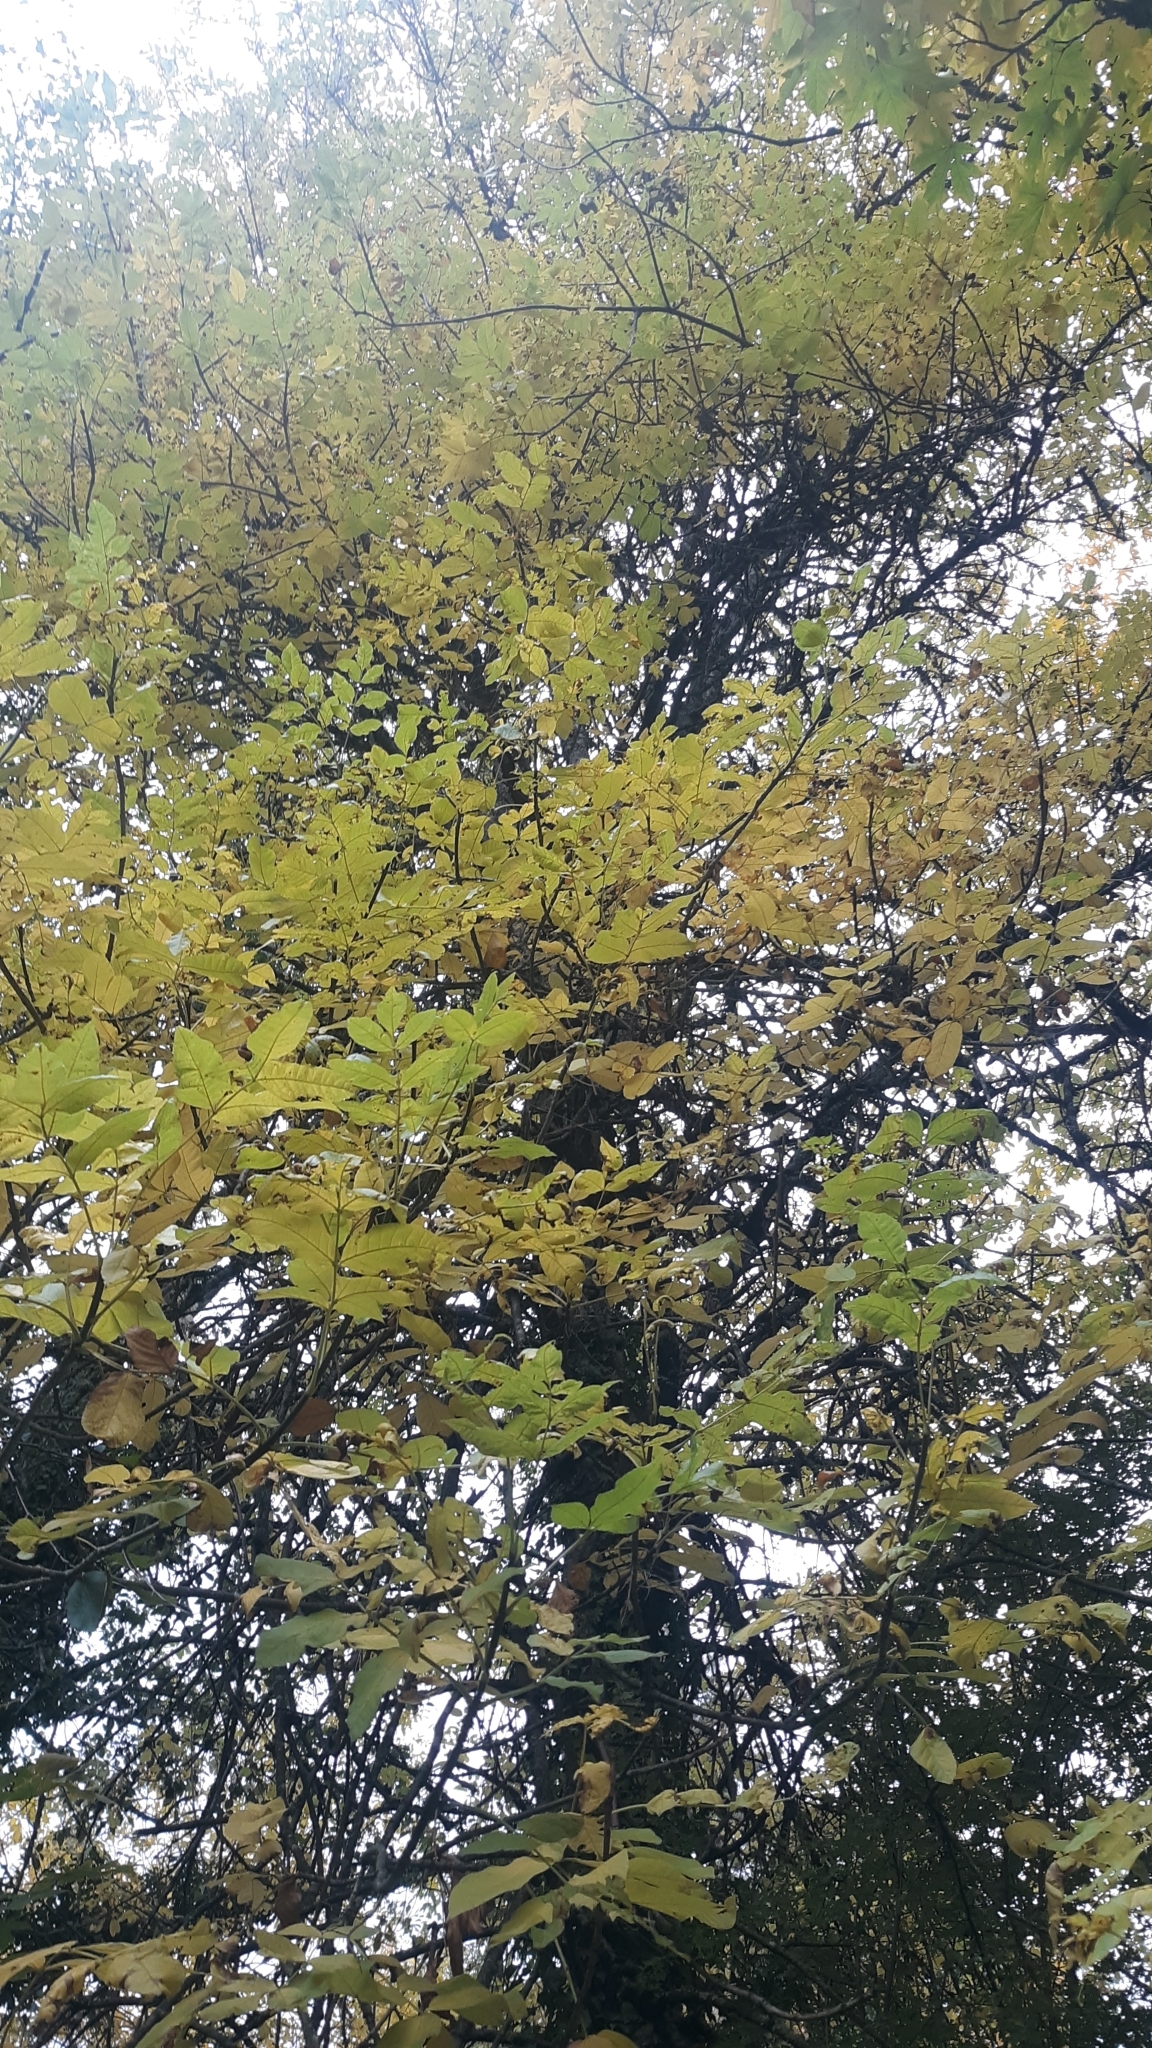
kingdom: Plantae
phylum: Tracheophyta
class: Magnoliopsida
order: Lamiales
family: Oleaceae
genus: Fraxinus
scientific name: Fraxinus latifolia
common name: Oregon ash
